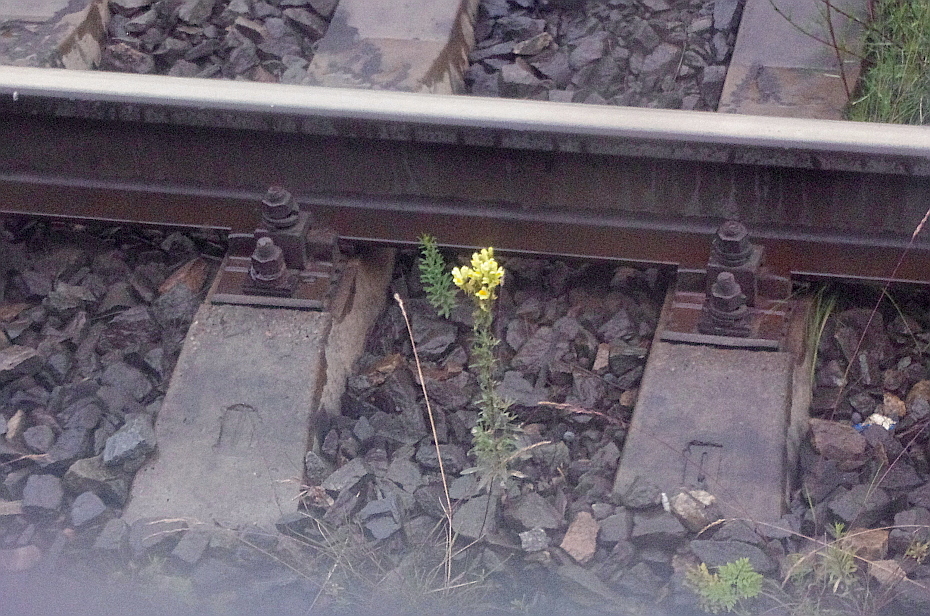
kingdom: Plantae
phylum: Tracheophyta
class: Magnoliopsida
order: Lamiales
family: Plantaginaceae
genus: Linaria
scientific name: Linaria vulgaris
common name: Butter and eggs
